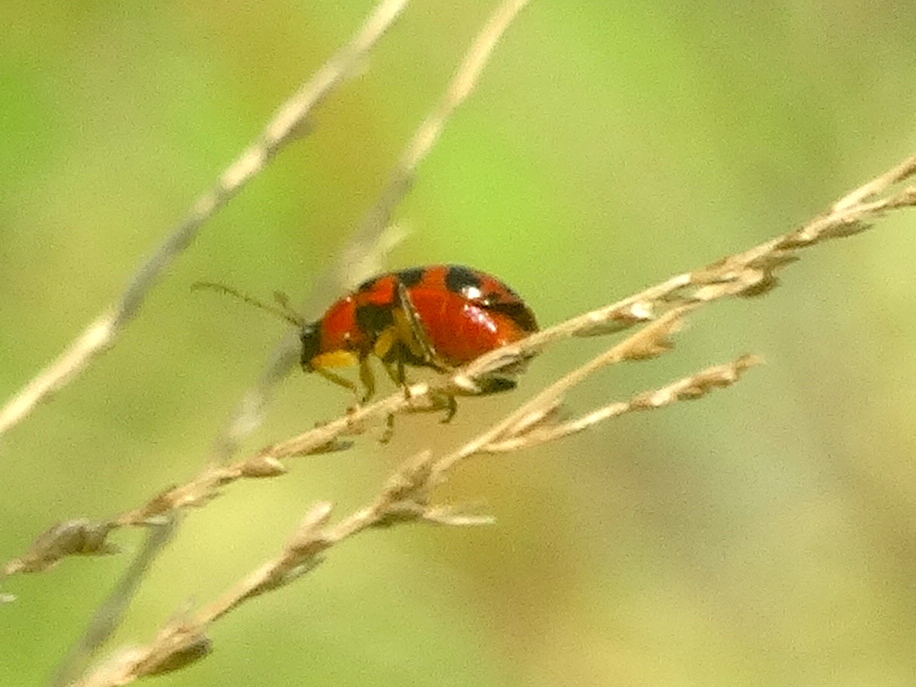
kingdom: Animalia
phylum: Arthropoda
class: Insecta
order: Coleoptera
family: Chrysomelidae
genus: Cerotoma
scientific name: Cerotoma
